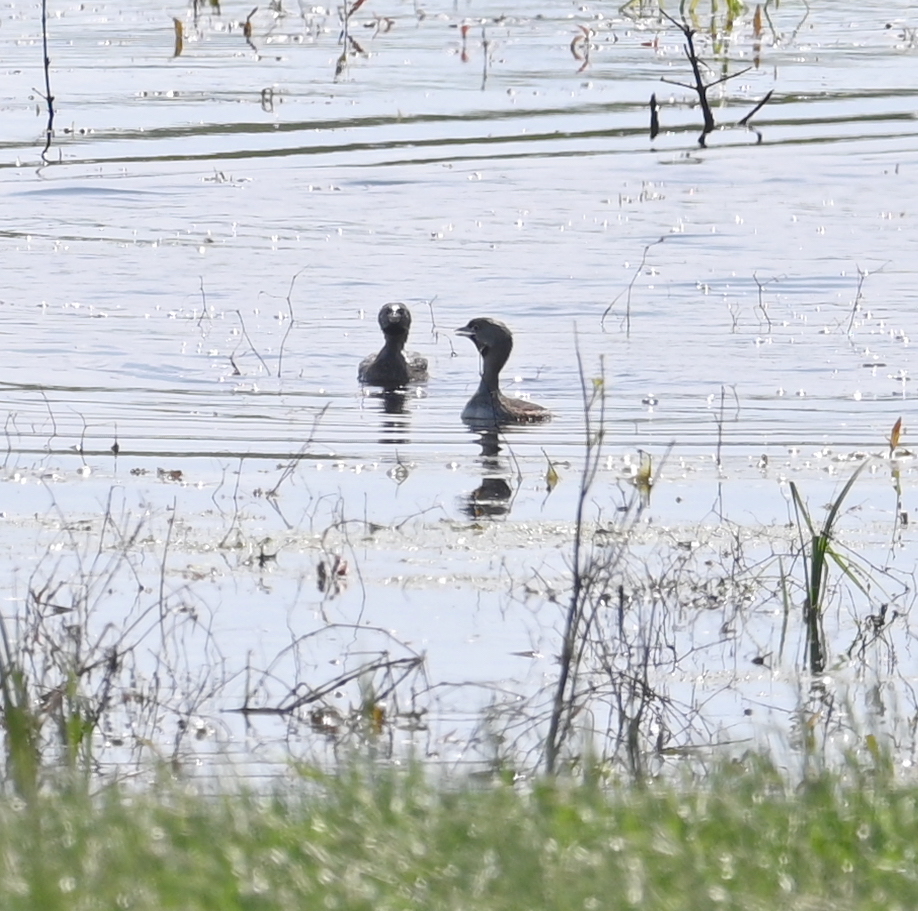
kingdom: Animalia
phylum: Chordata
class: Aves
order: Podicipediformes
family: Podicipedidae
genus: Podilymbus
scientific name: Podilymbus podiceps
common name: Pied-billed grebe
